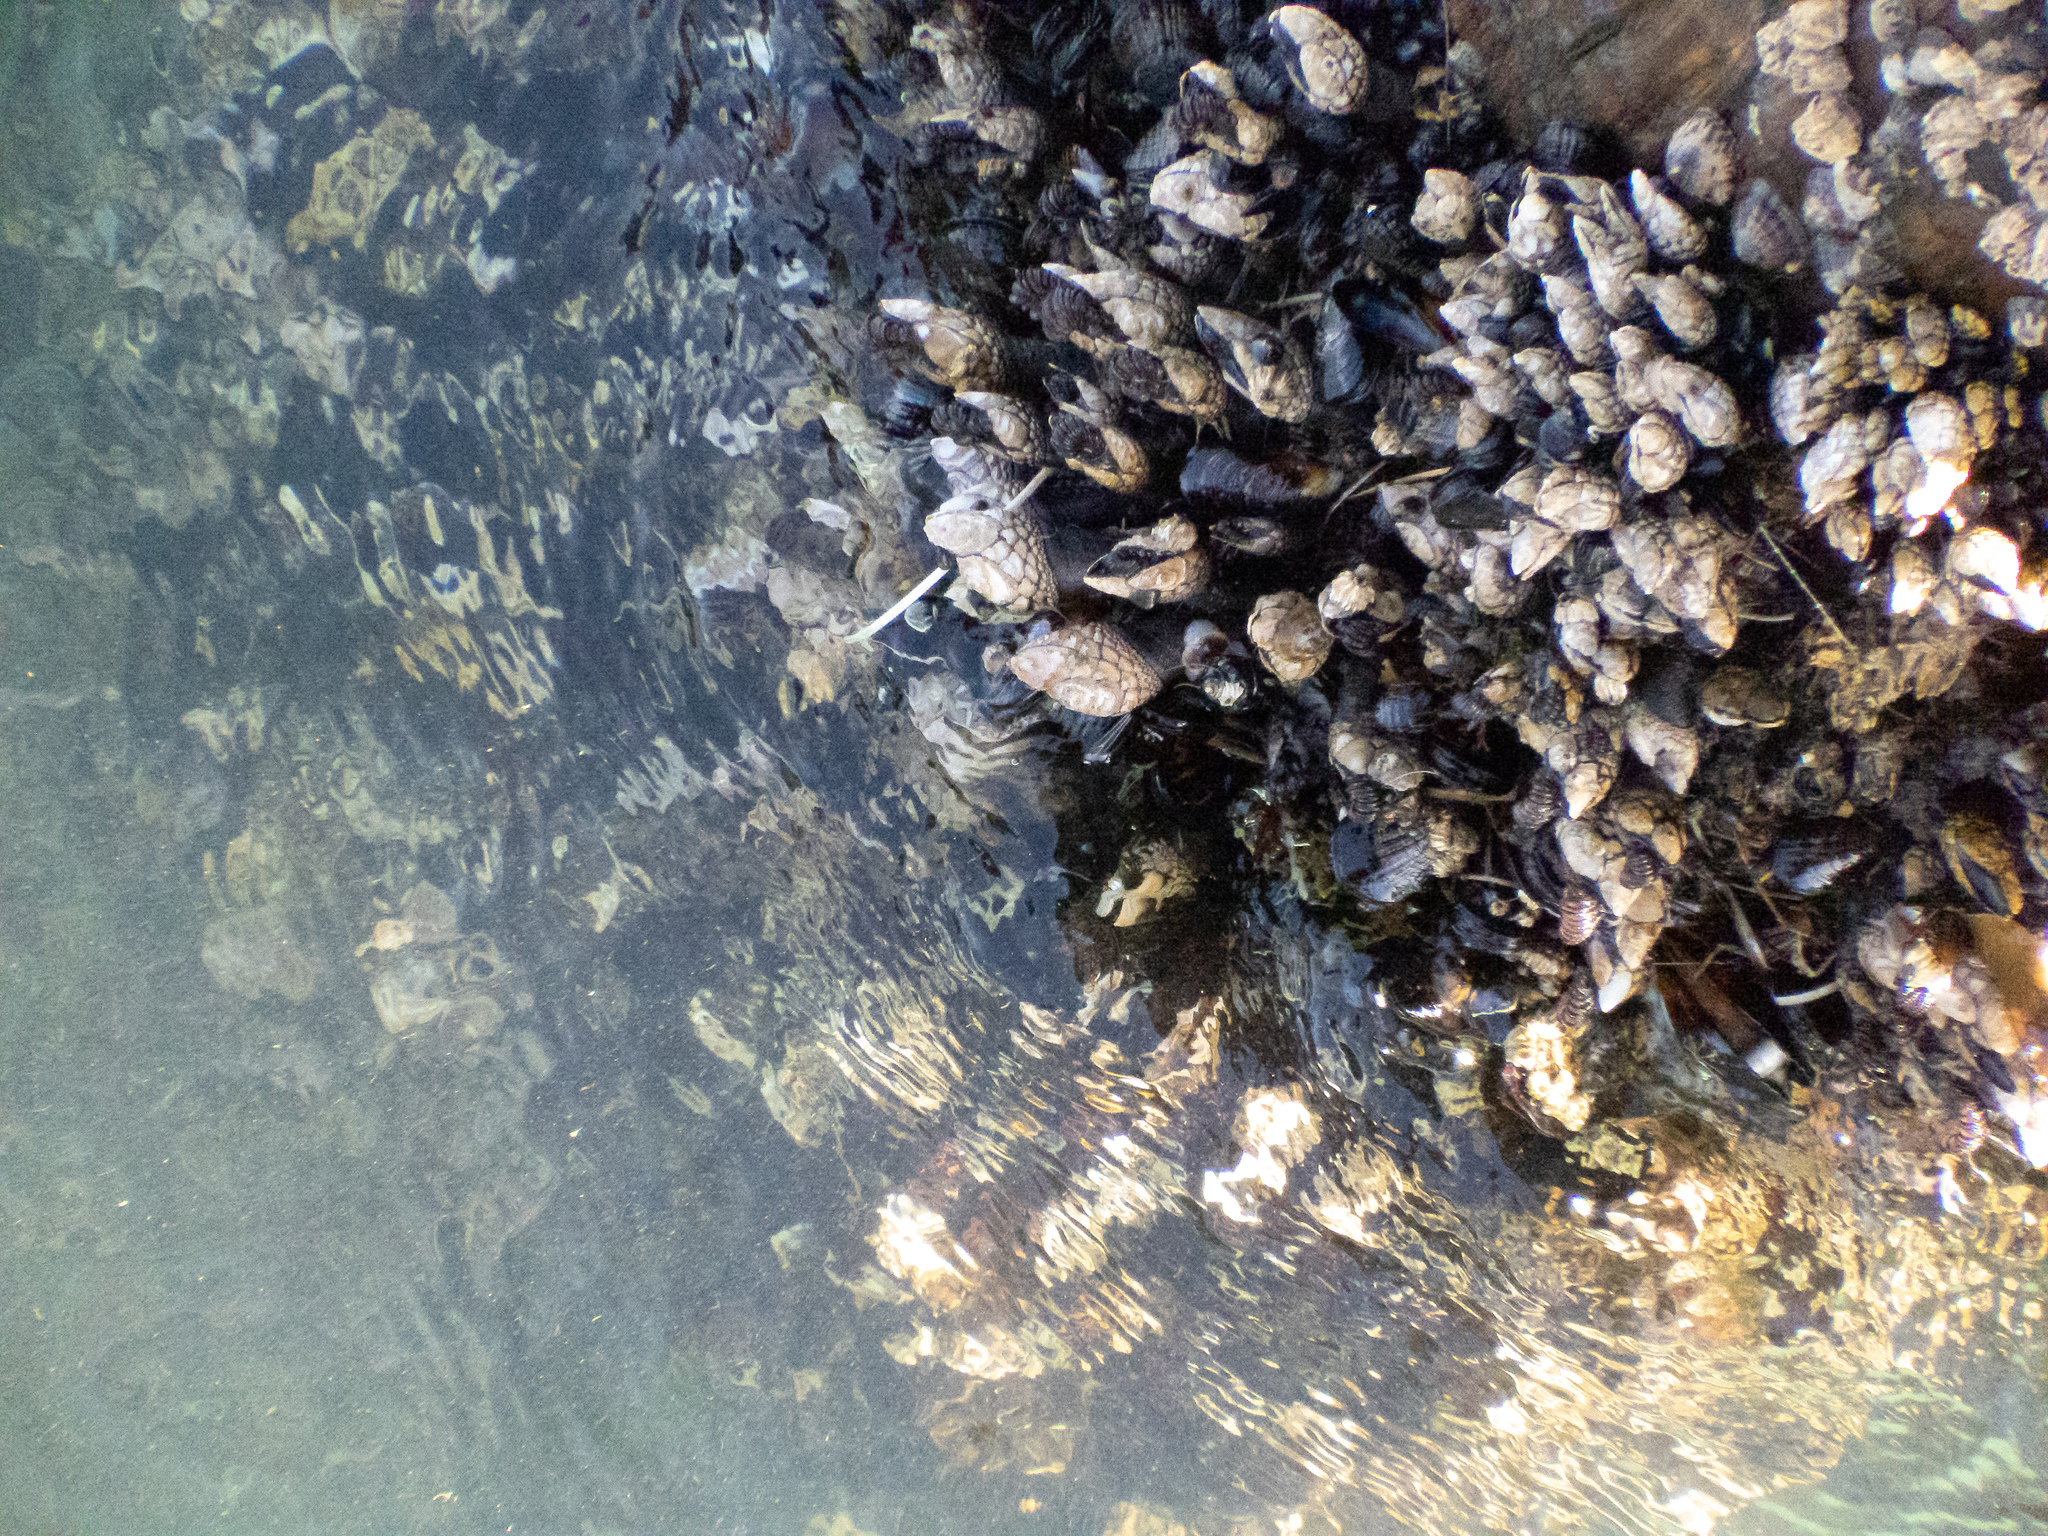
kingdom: Animalia
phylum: Arthropoda
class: Maxillopoda
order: Pedunculata
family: Pollicipedidae
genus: Pollicipes
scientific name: Pollicipes polymerus
